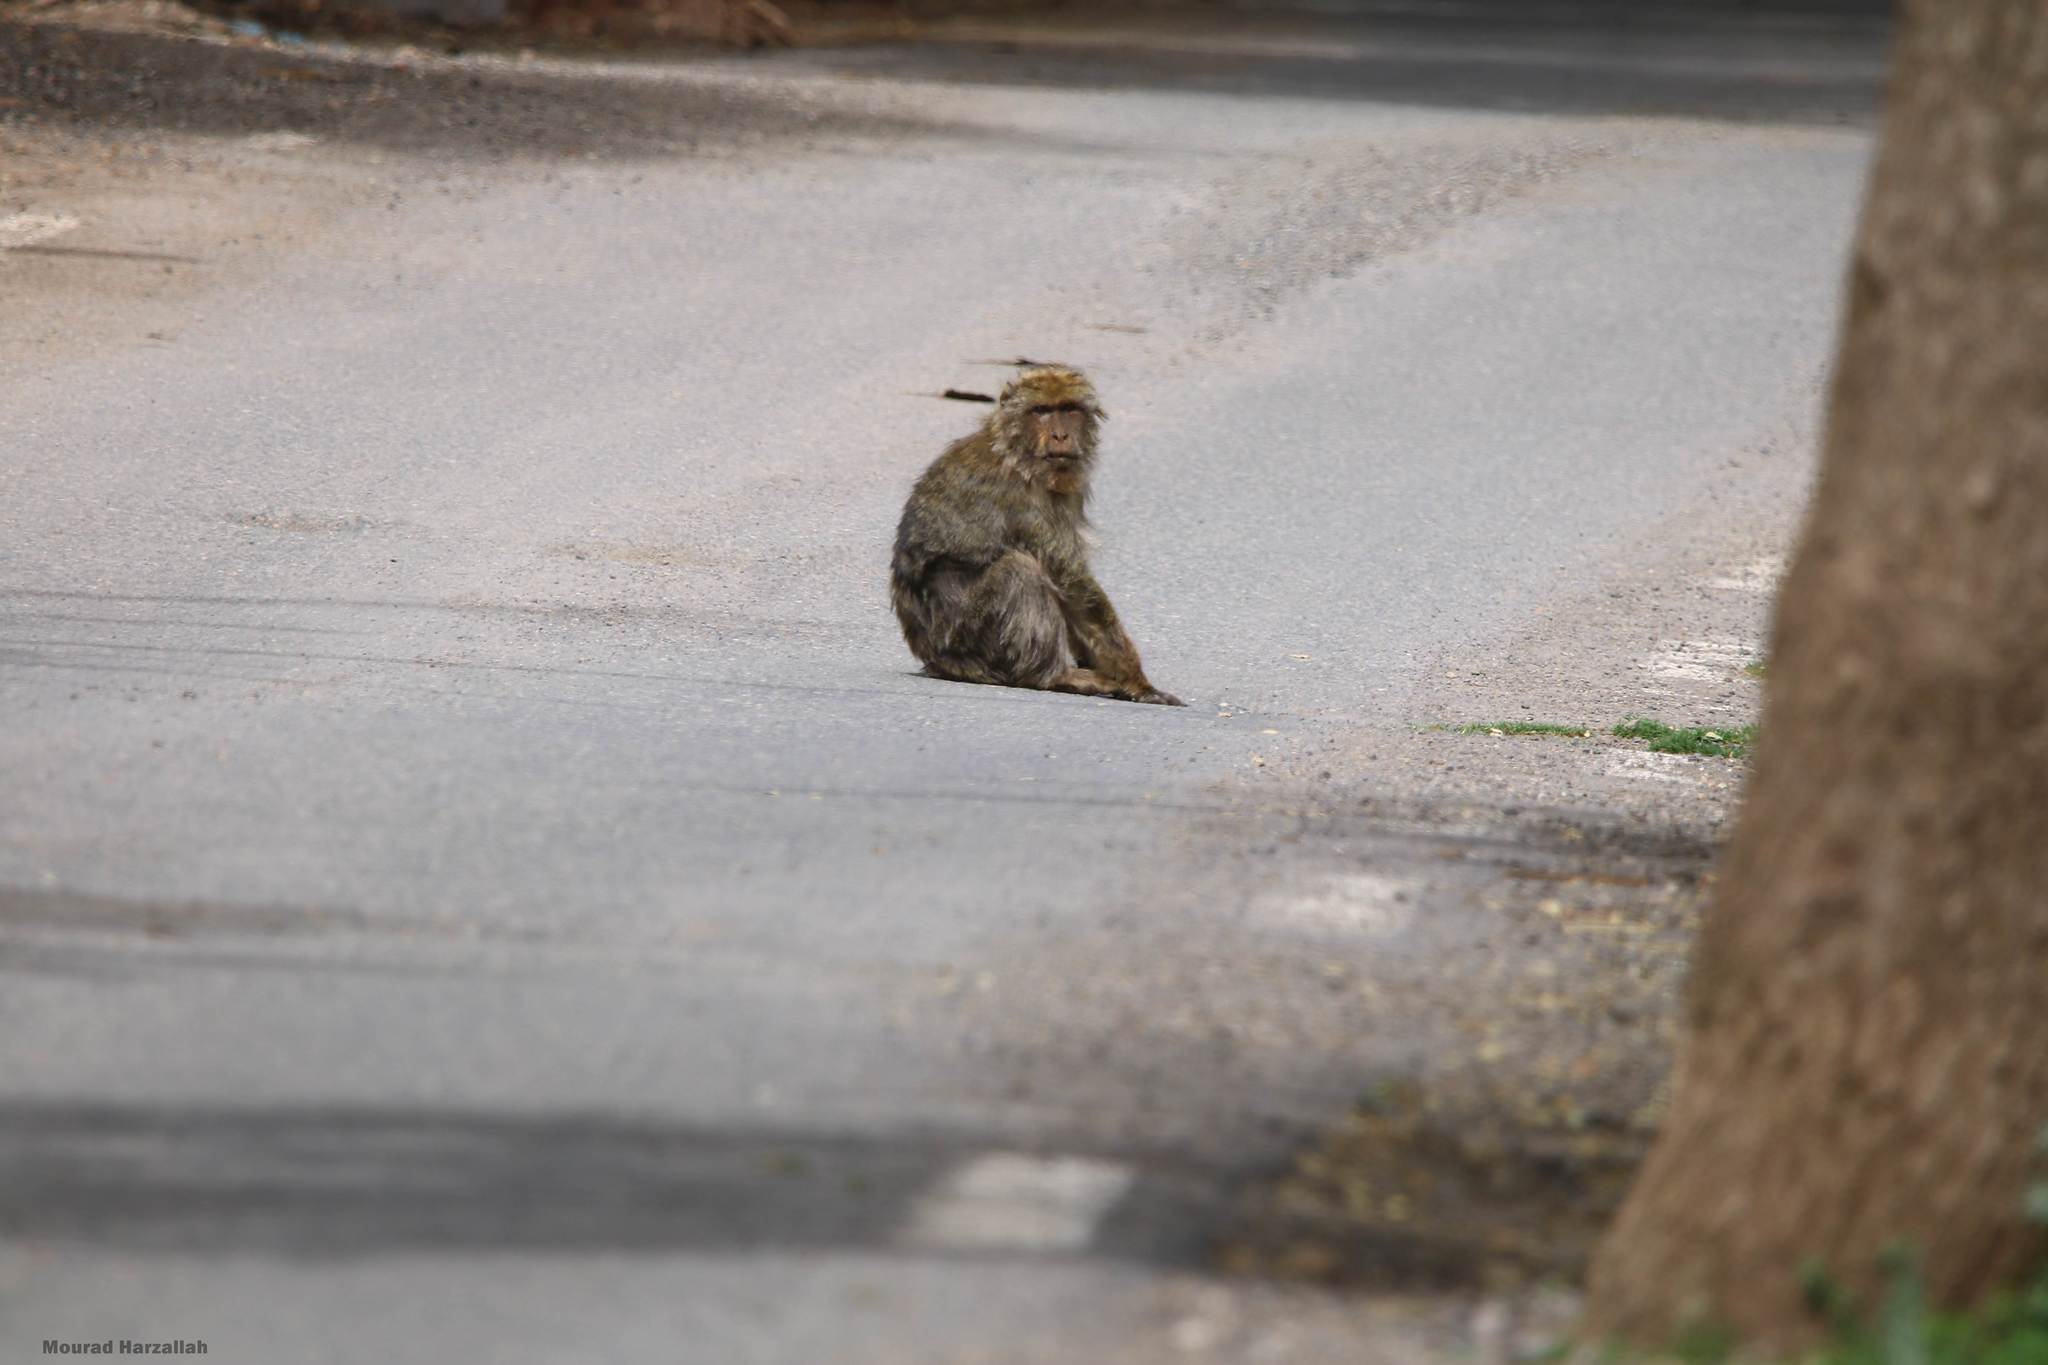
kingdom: Animalia
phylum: Chordata
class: Mammalia
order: Primates
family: Cercopithecidae
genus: Macaca
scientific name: Macaca sylvanus
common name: Barbary macaque
